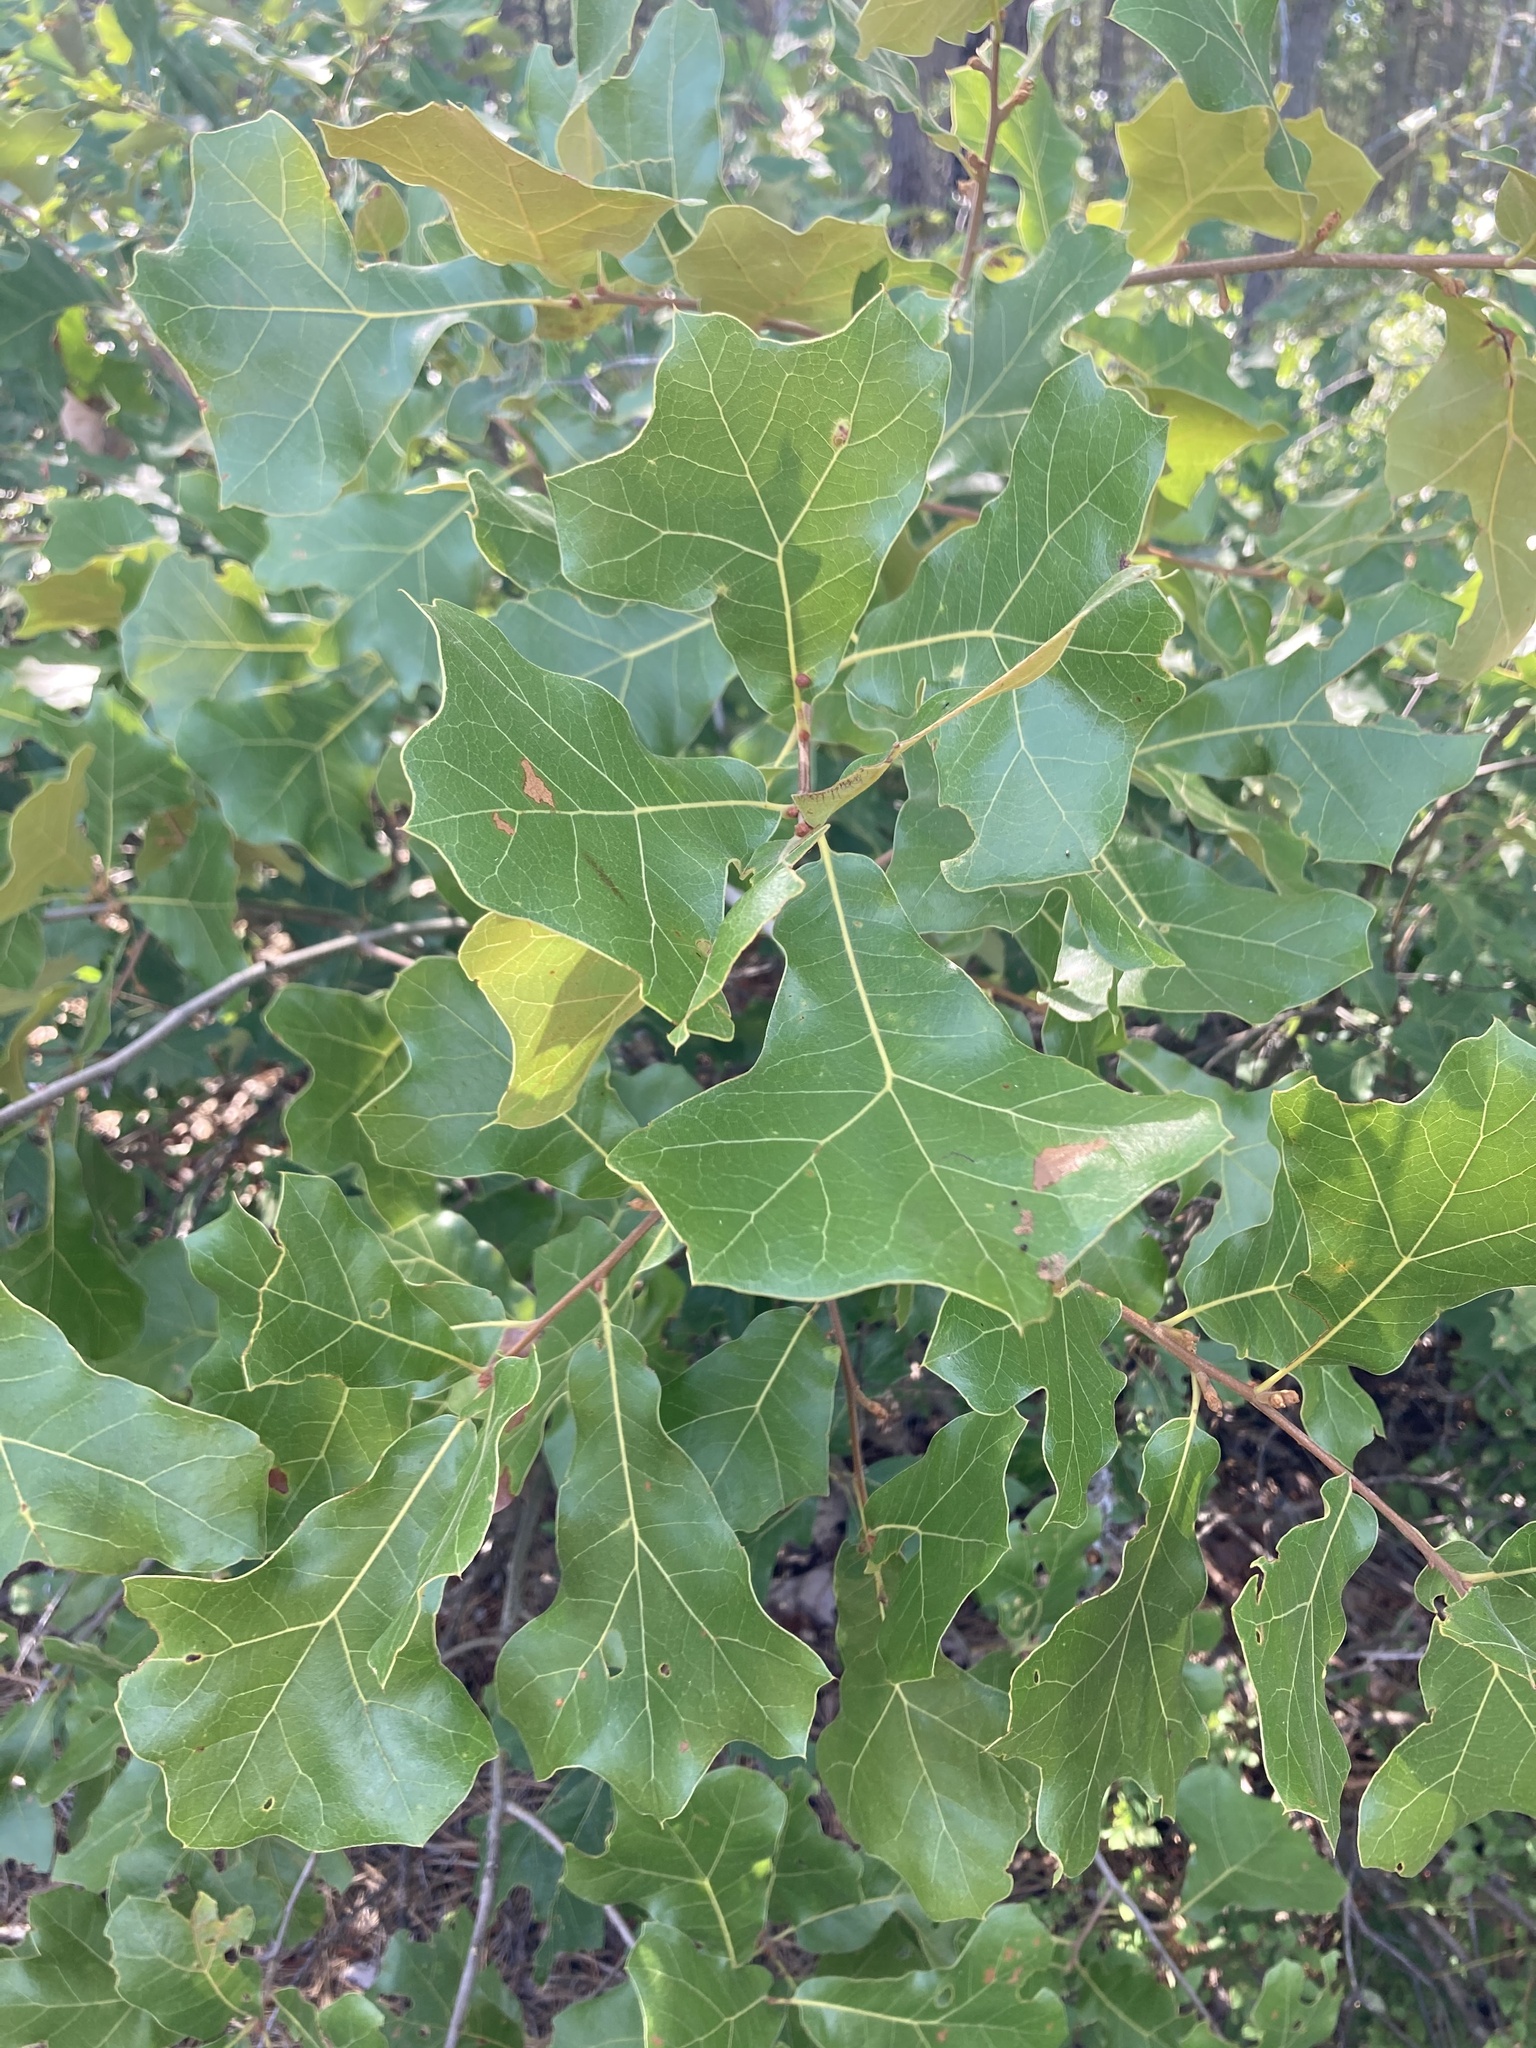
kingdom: Plantae
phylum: Tracheophyta
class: Magnoliopsida
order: Fagales
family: Fagaceae
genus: Quercus
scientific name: Quercus marilandica
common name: Blackjack oak
